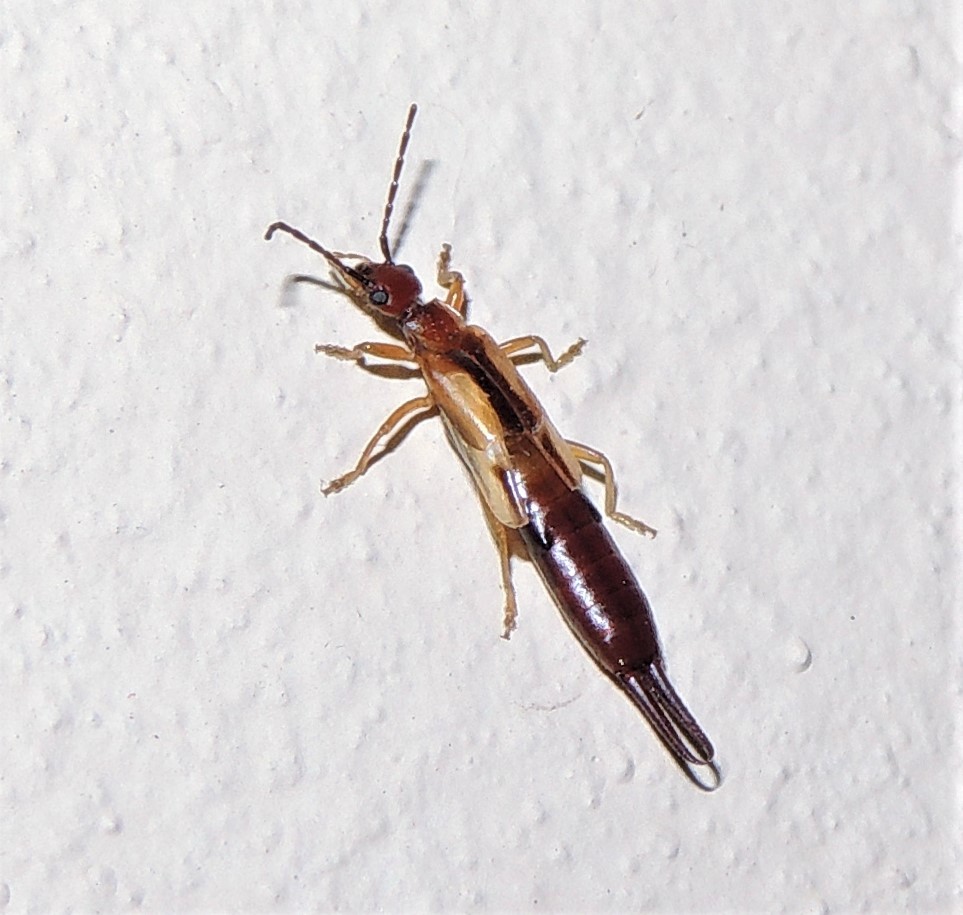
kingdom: Animalia
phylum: Arthropoda
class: Insecta
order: Dermaptera
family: Forficulidae
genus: Doru
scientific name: Doru
